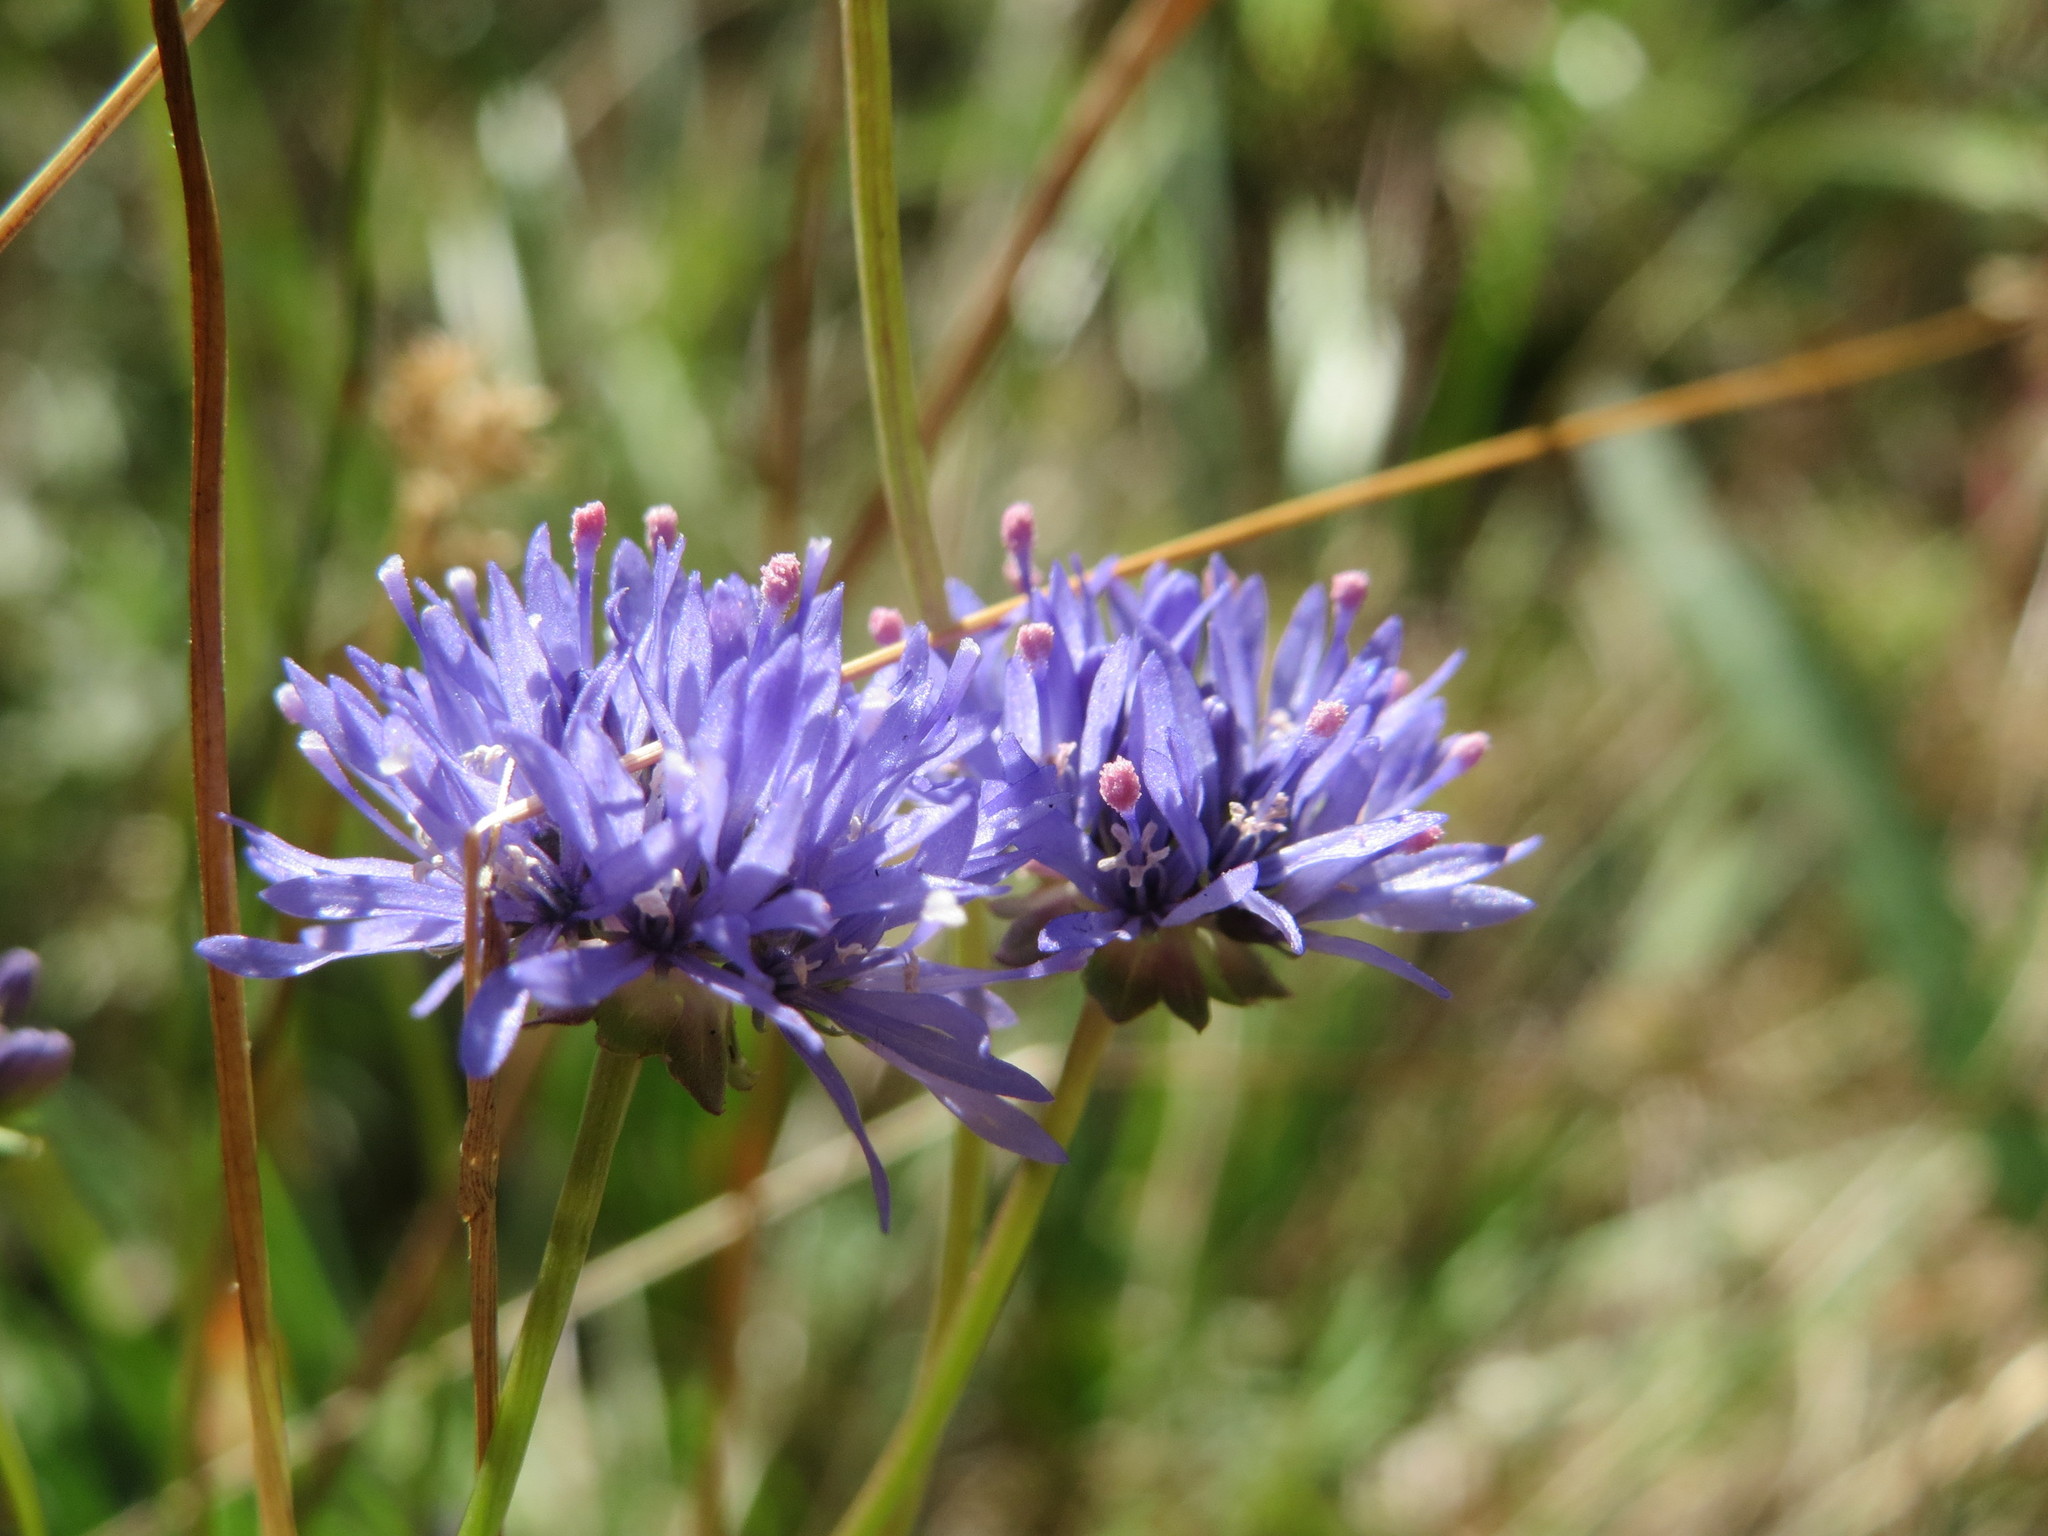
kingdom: Plantae
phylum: Tracheophyta
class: Magnoliopsida
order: Asterales
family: Campanulaceae
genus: Jasione
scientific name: Jasione montana
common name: Sheep's-bit
